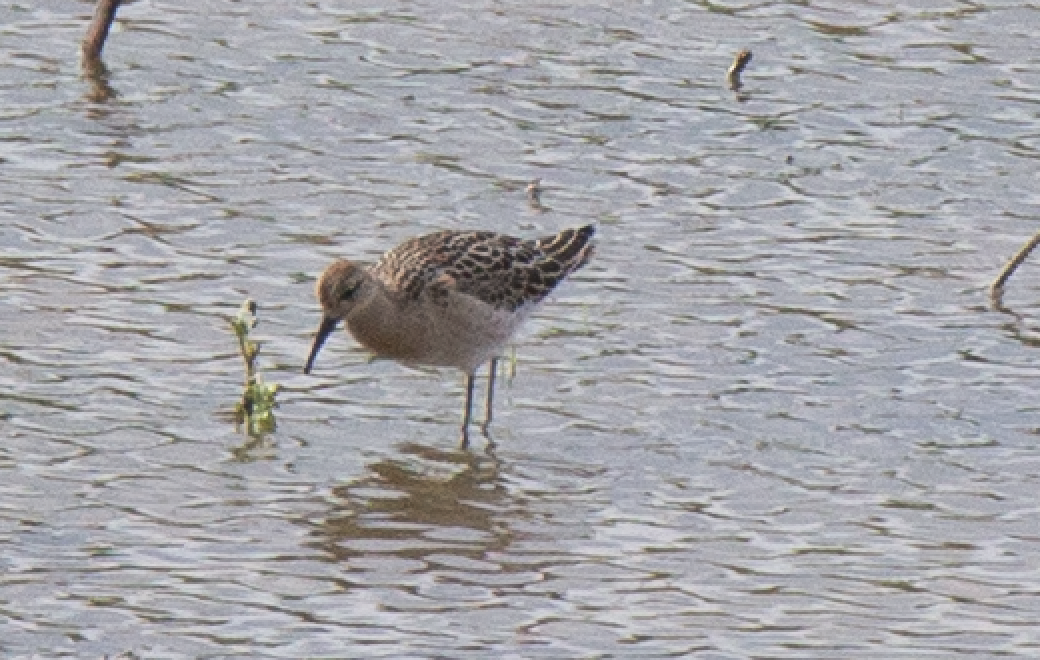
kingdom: Animalia
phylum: Chordata
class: Aves
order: Charadriiformes
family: Scolopacidae
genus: Calidris
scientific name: Calidris pugnax
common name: Ruff
